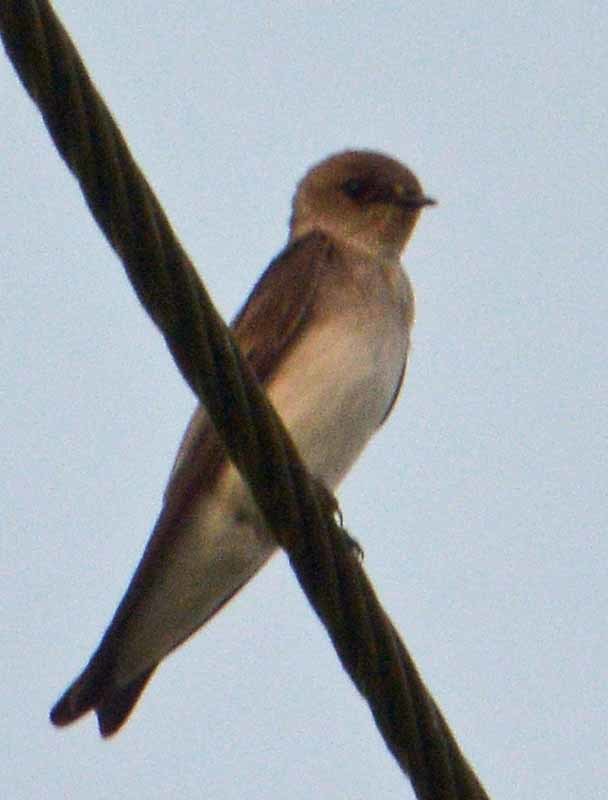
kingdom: Animalia
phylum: Chordata
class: Aves
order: Passeriformes
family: Hirundinidae
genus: Stelgidopteryx
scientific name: Stelgidopteryx serripennis
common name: Northern rough-winged swallow
